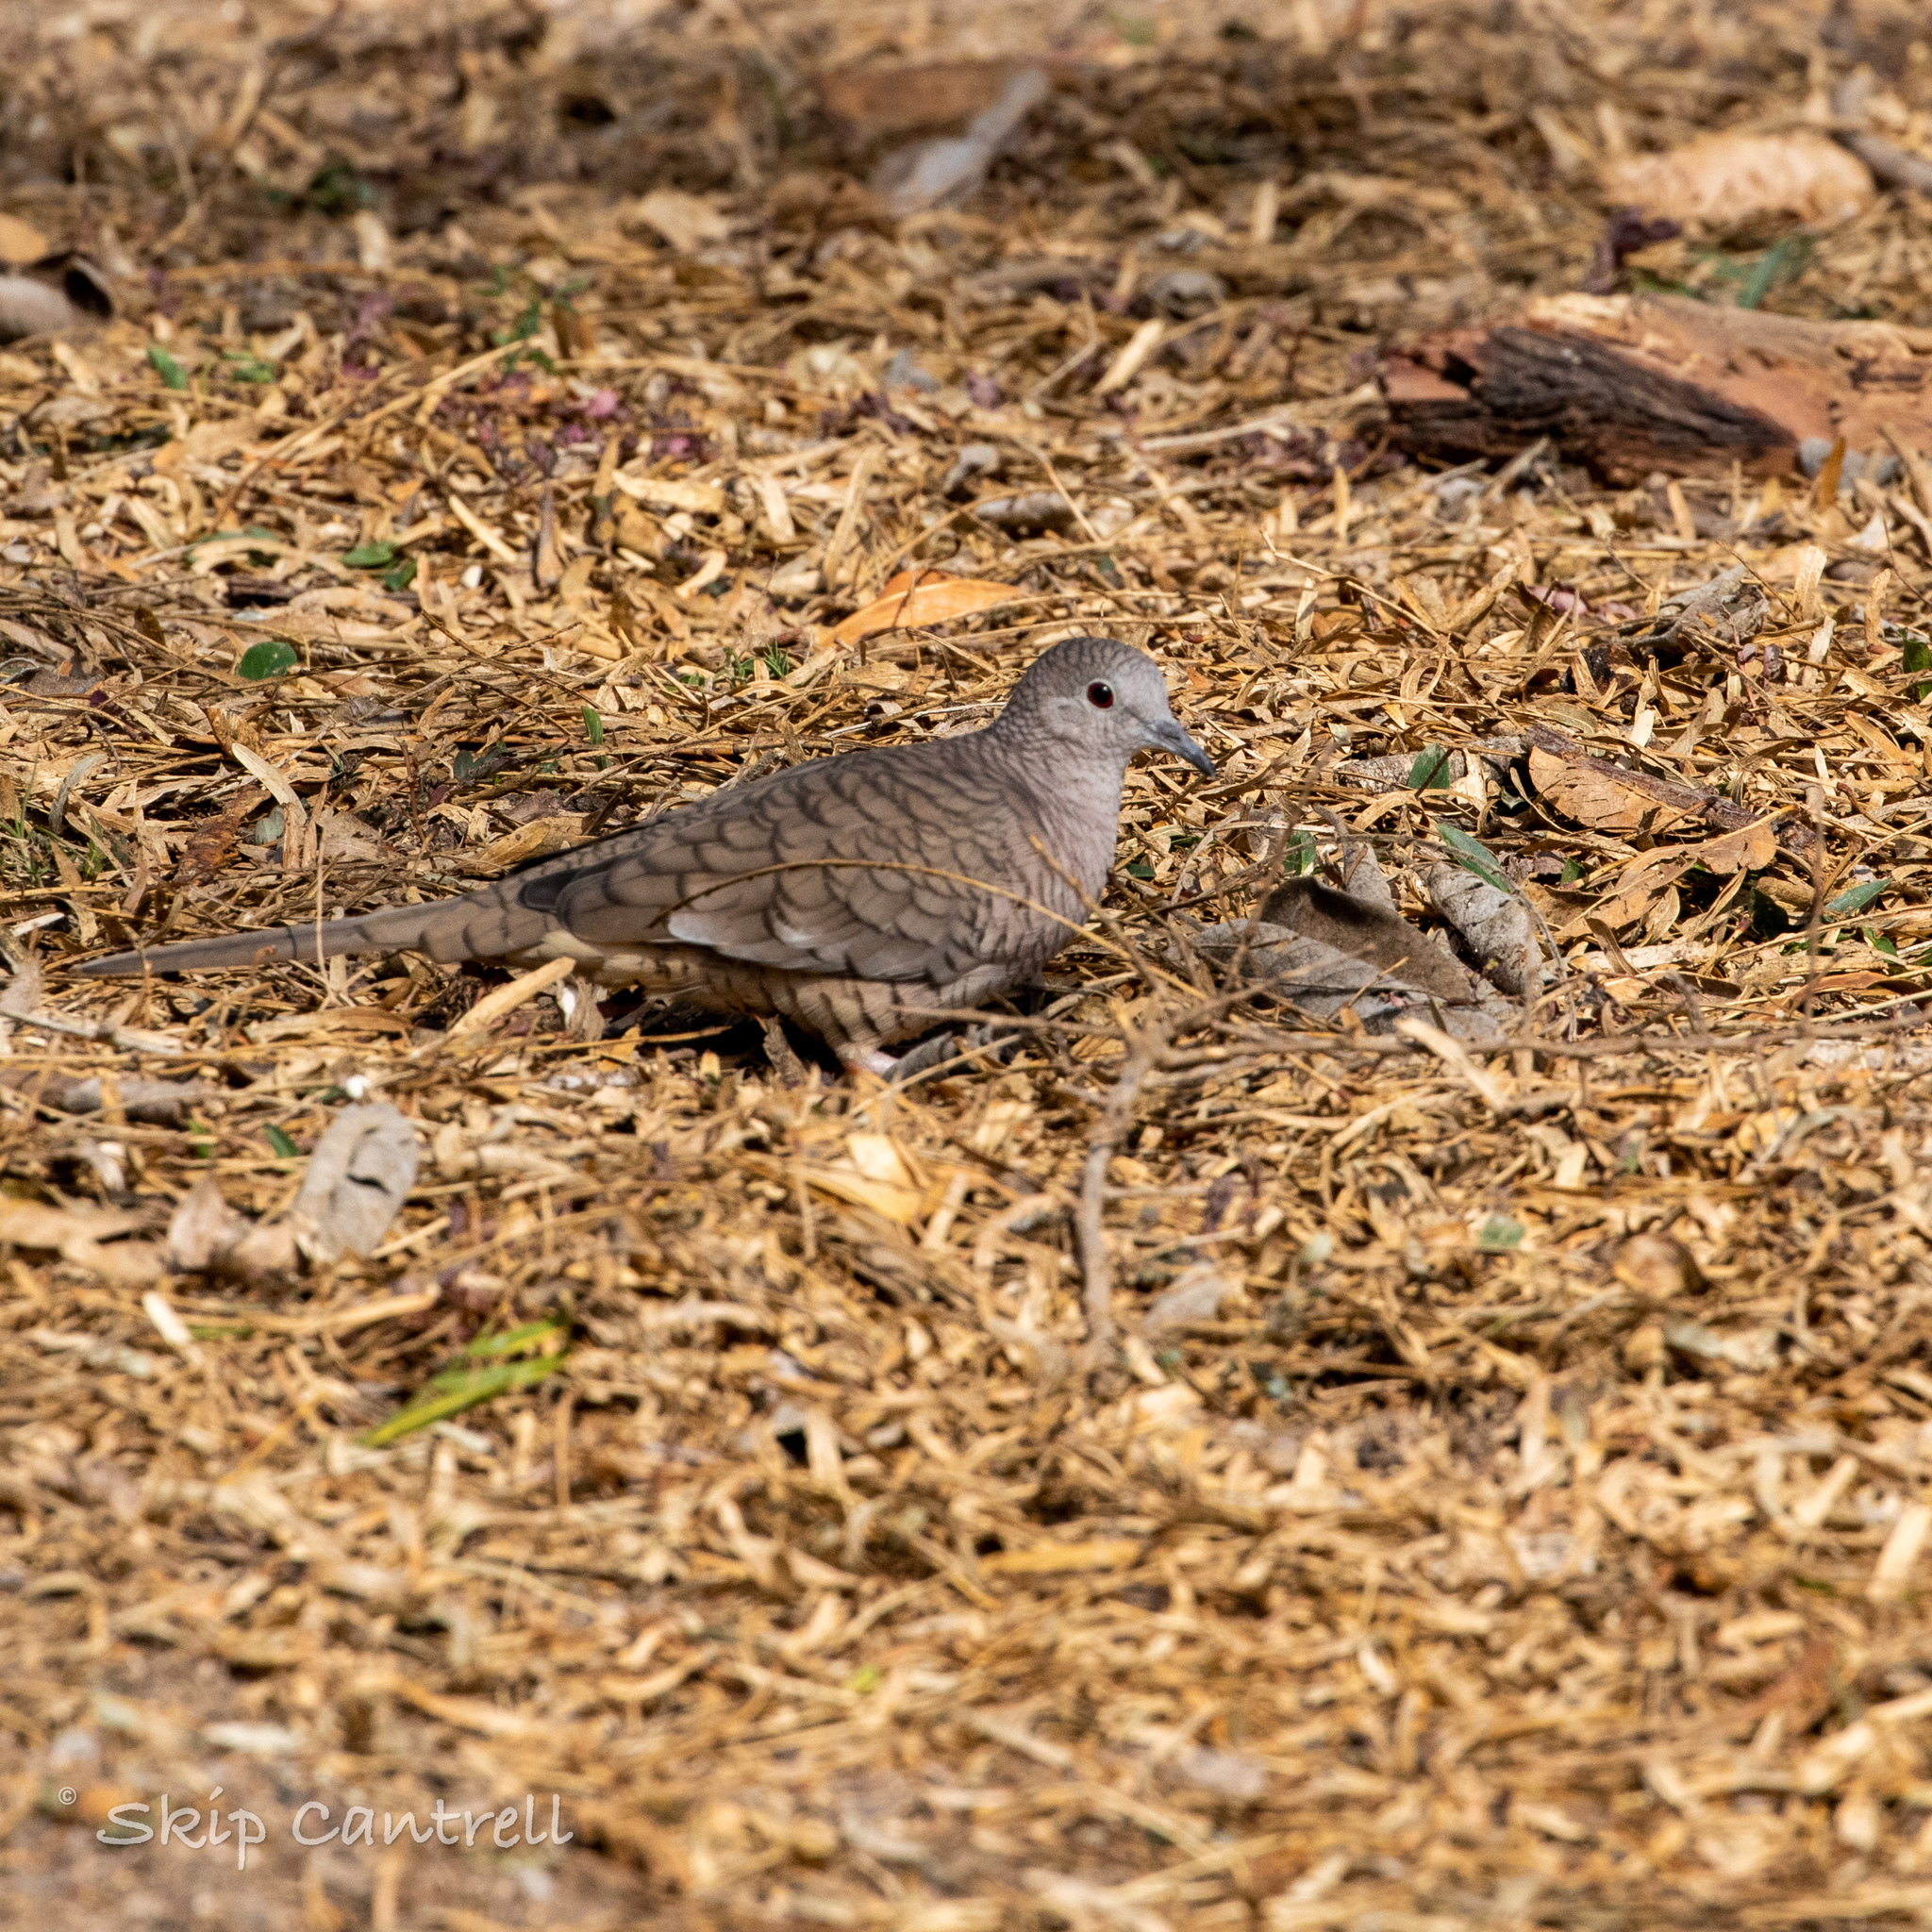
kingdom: Animalia
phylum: Chordata
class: Aves
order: Columbiformes
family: Columbidae
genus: Columbina
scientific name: Columbina inca
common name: Inca dove
